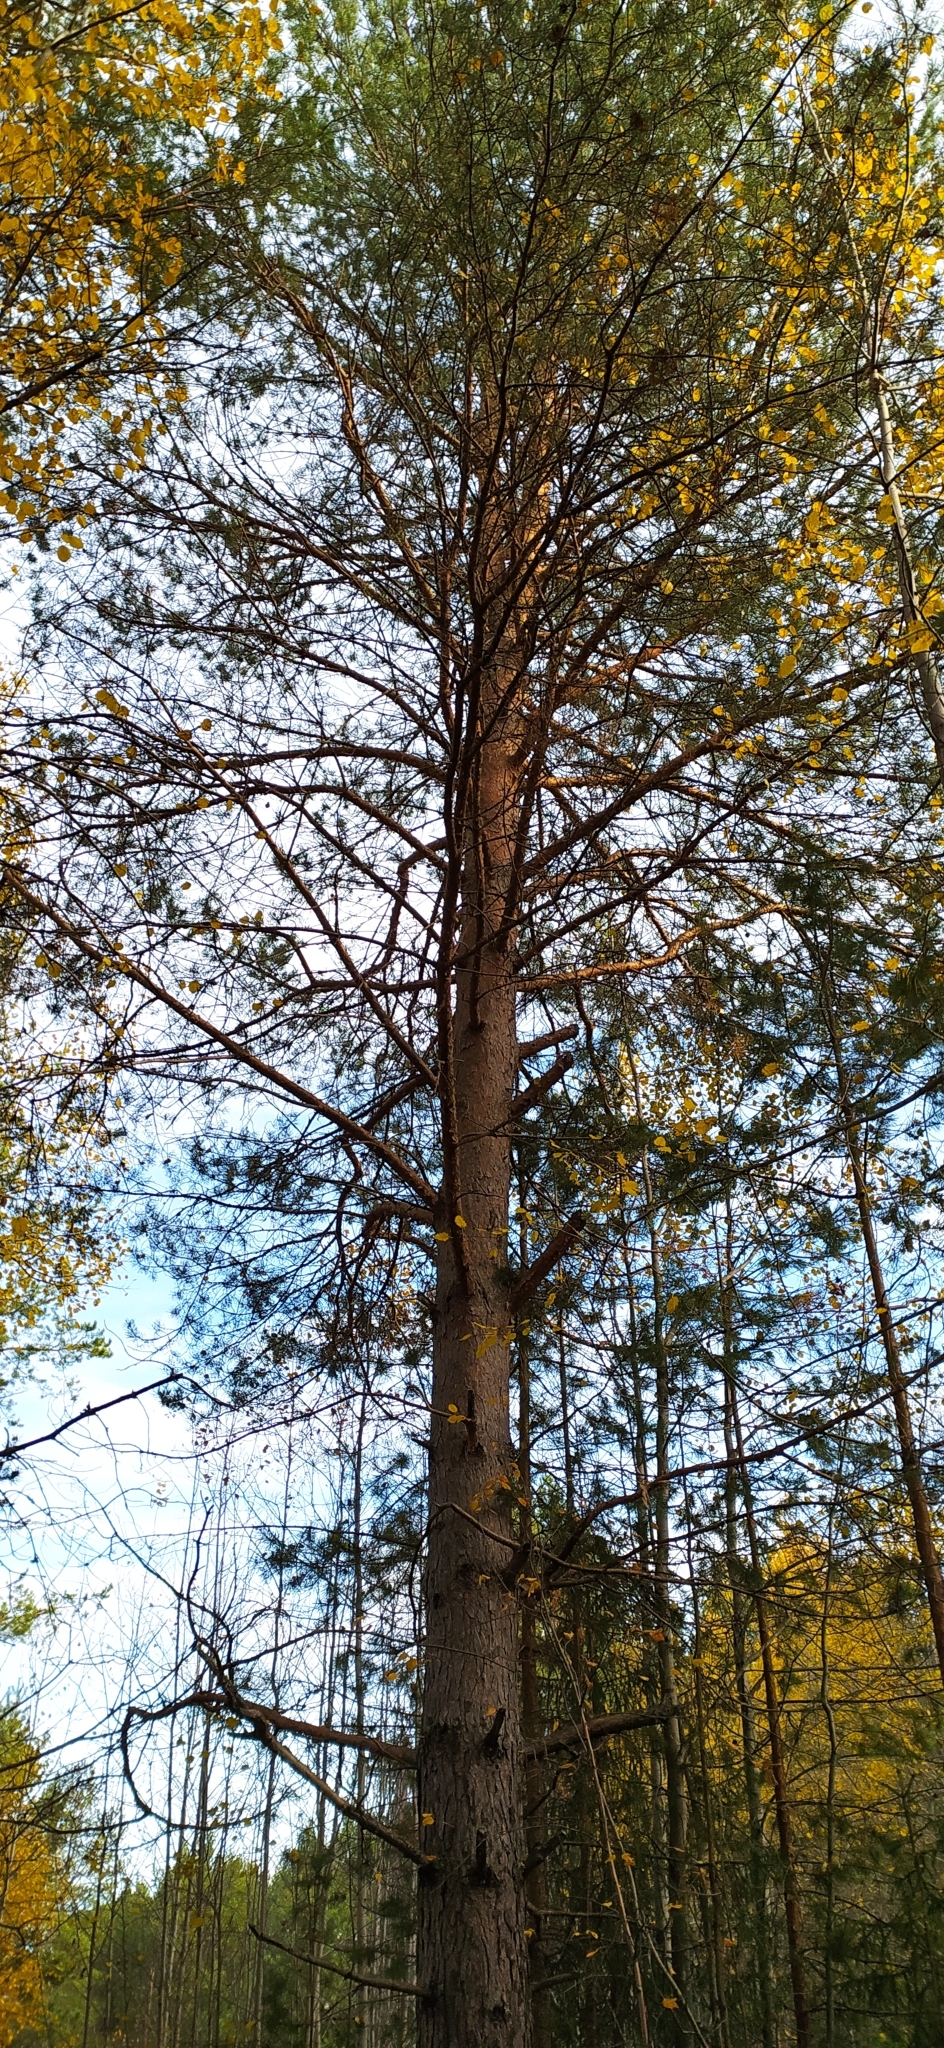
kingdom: Plantae
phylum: Tracheophyta
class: Pinopsida
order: Pinales
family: Pinaceae
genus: Pinus
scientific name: Pinus sylvestris
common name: Scots pine
